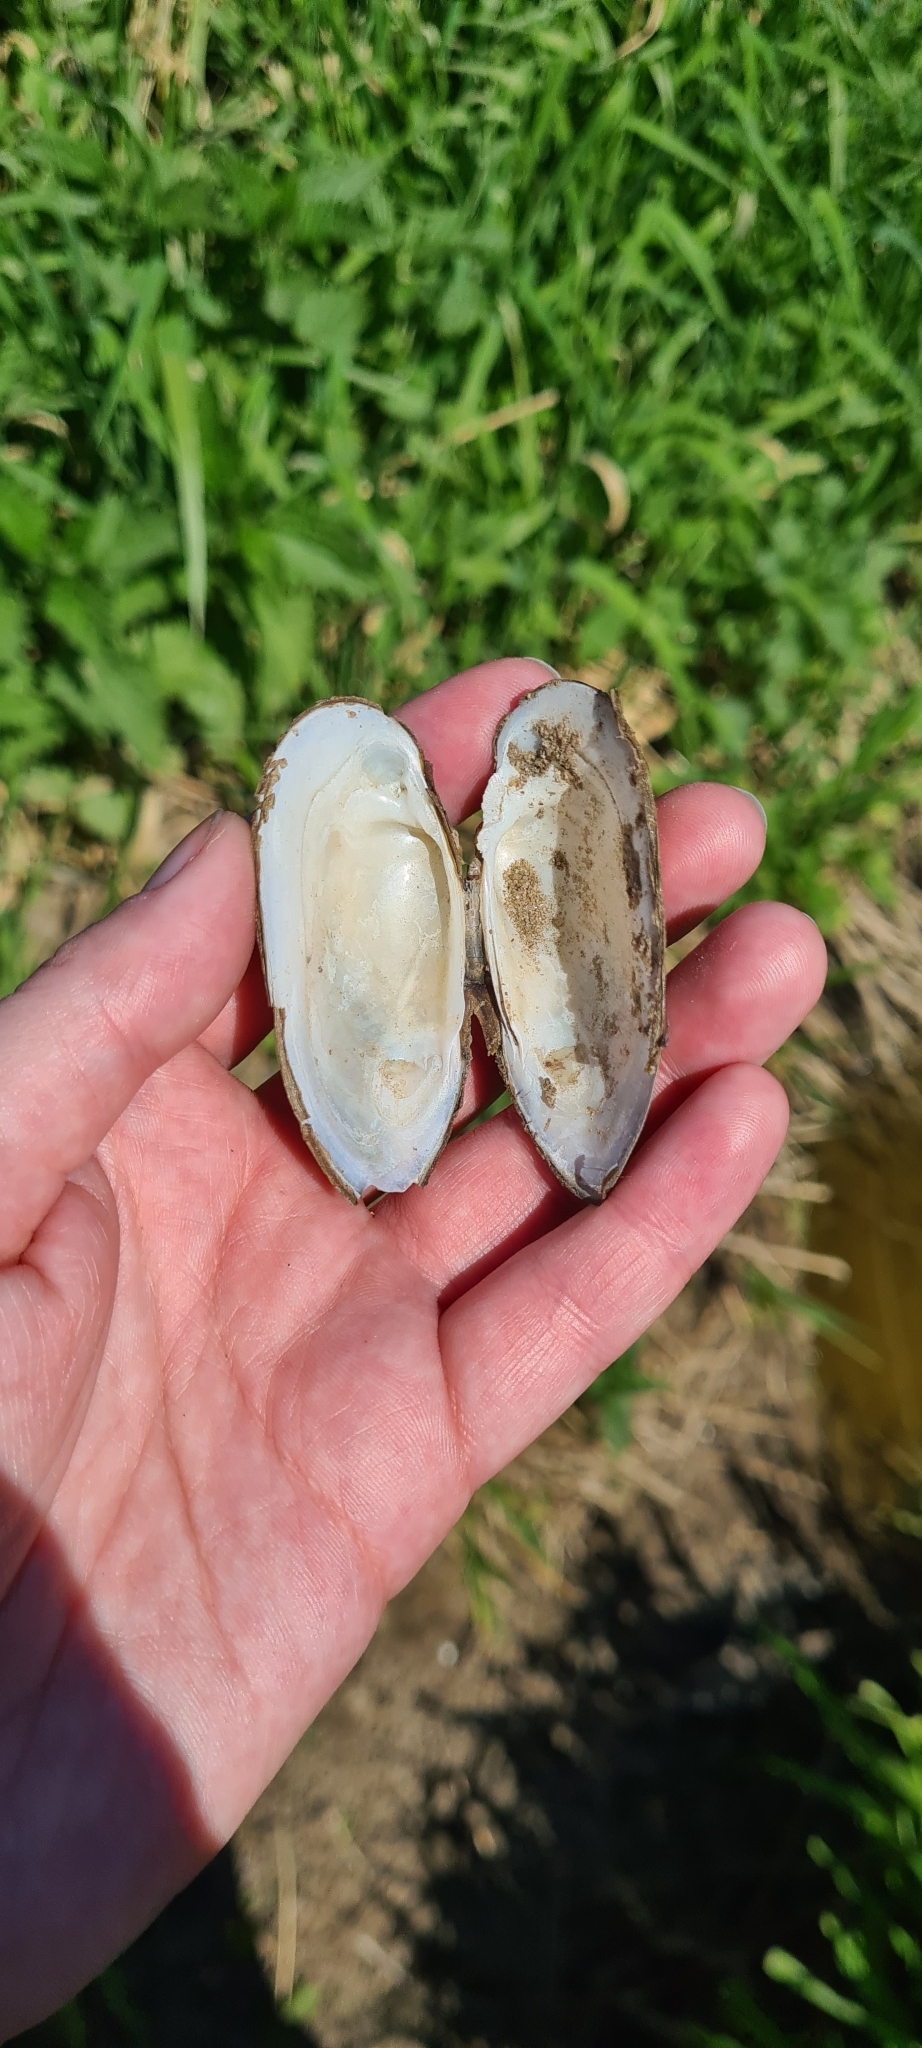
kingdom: Animalia
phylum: Mollusca
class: Bivalvia
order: Unionida
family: Unionidae
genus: Unio
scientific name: Unio pictorum
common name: Painter's mussel
